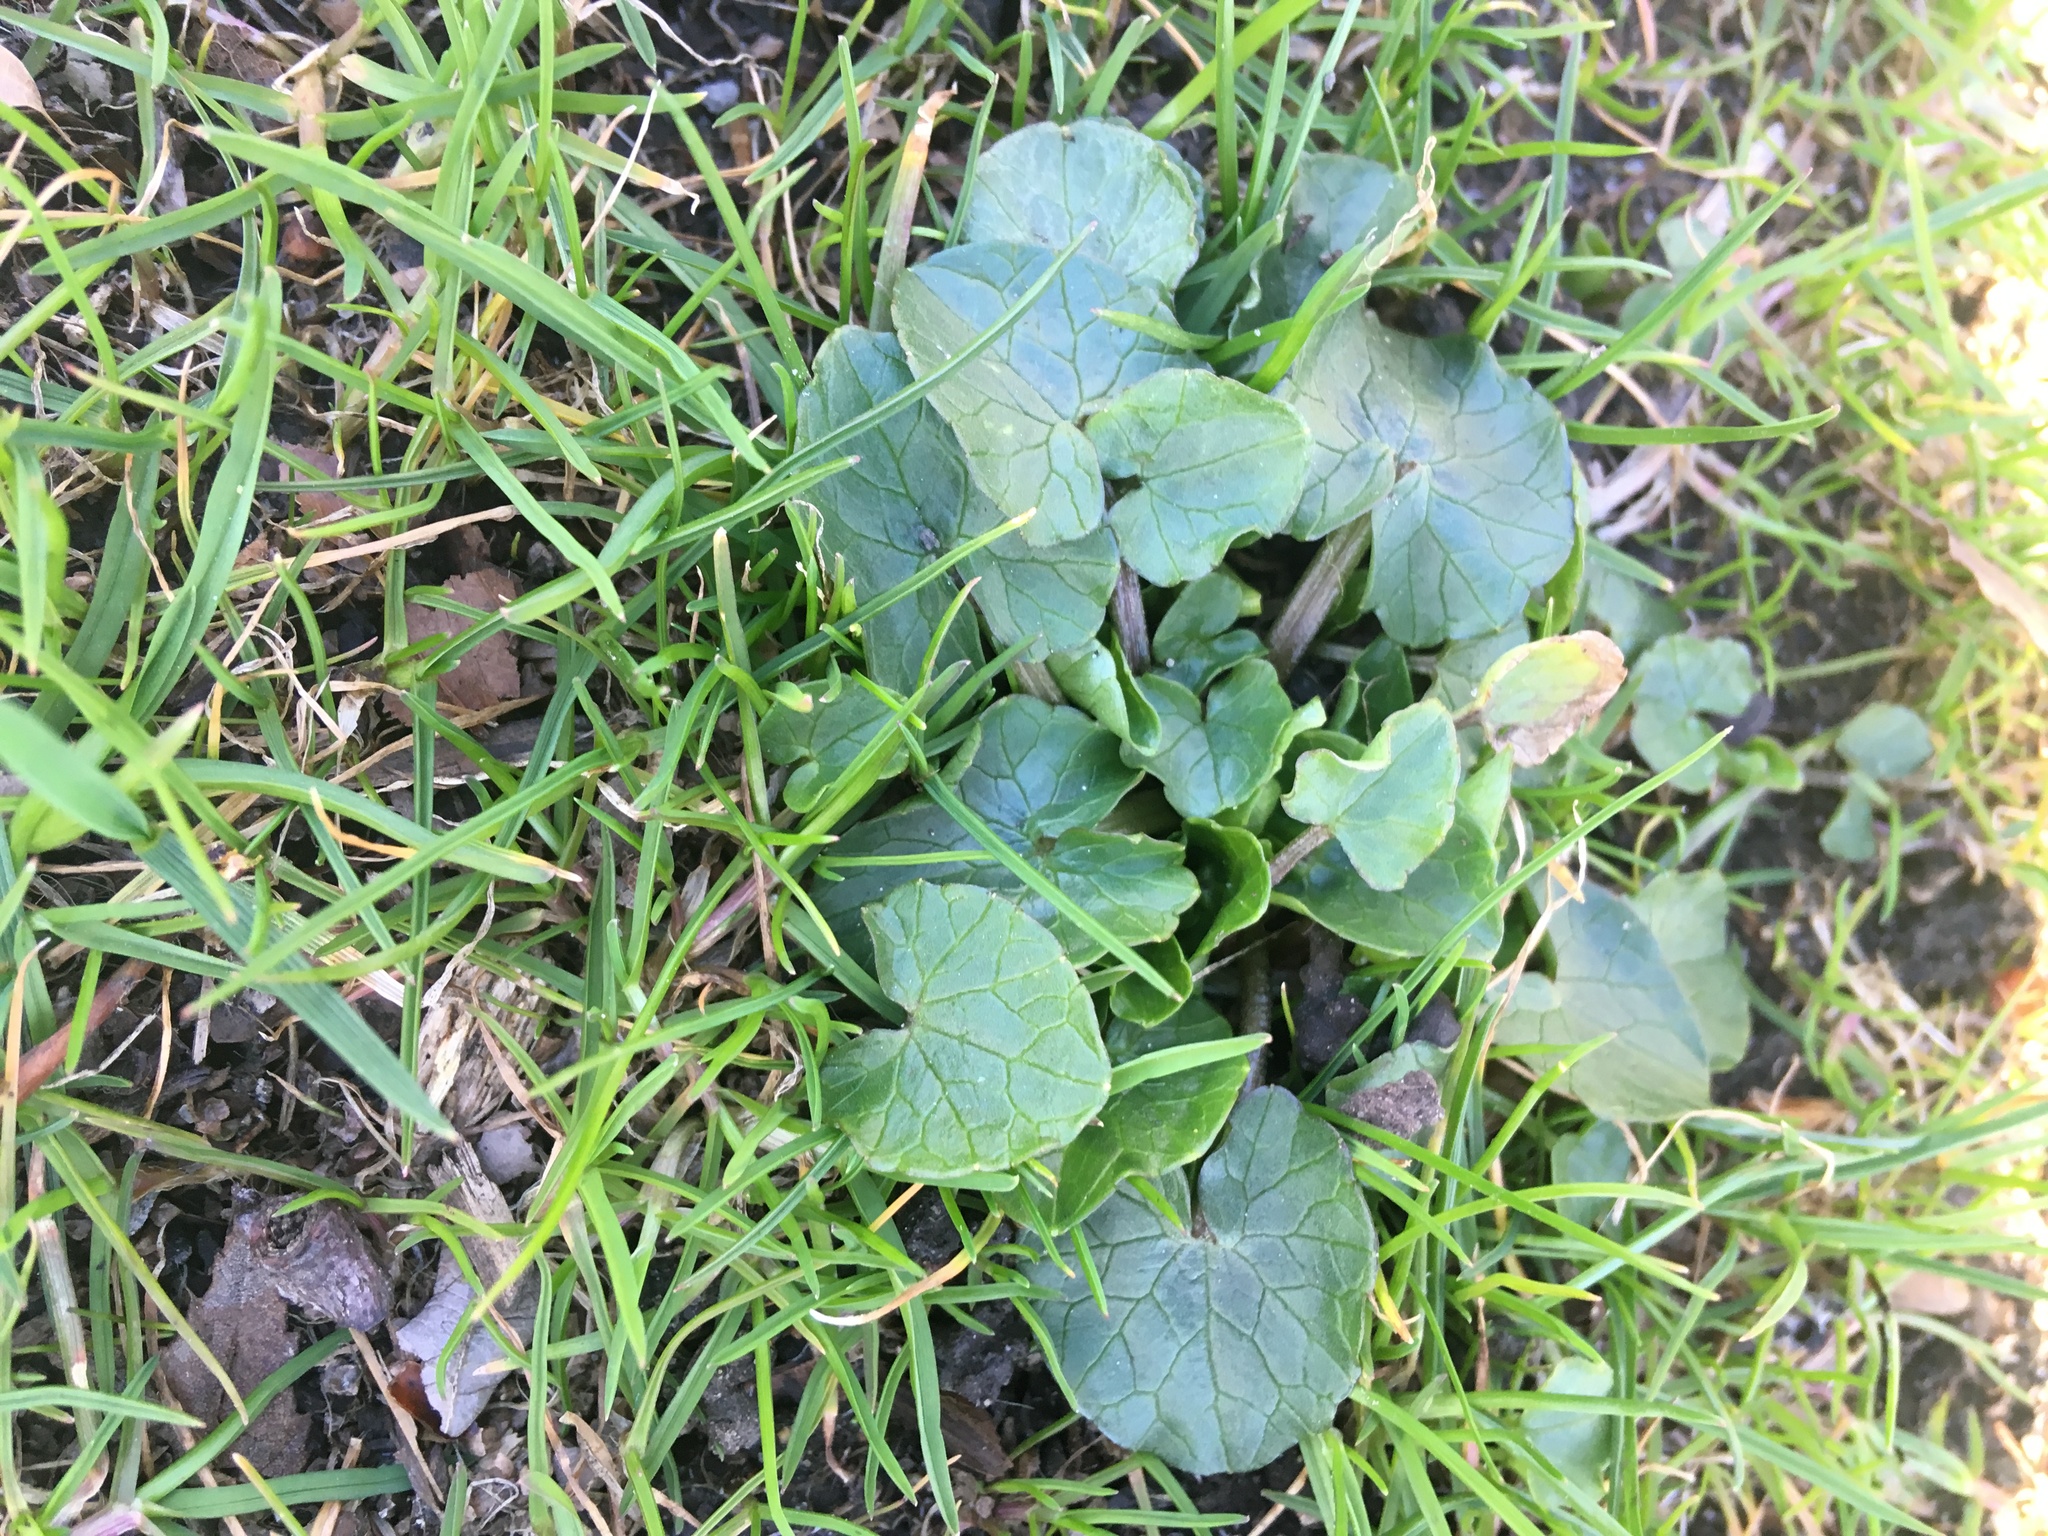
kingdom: Plantae
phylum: Tracheophyta
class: Magnoliopsida
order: Ranunculales
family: Ranunculaceae
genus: Ficaria
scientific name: Ficaria verna
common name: Lesser celandine
